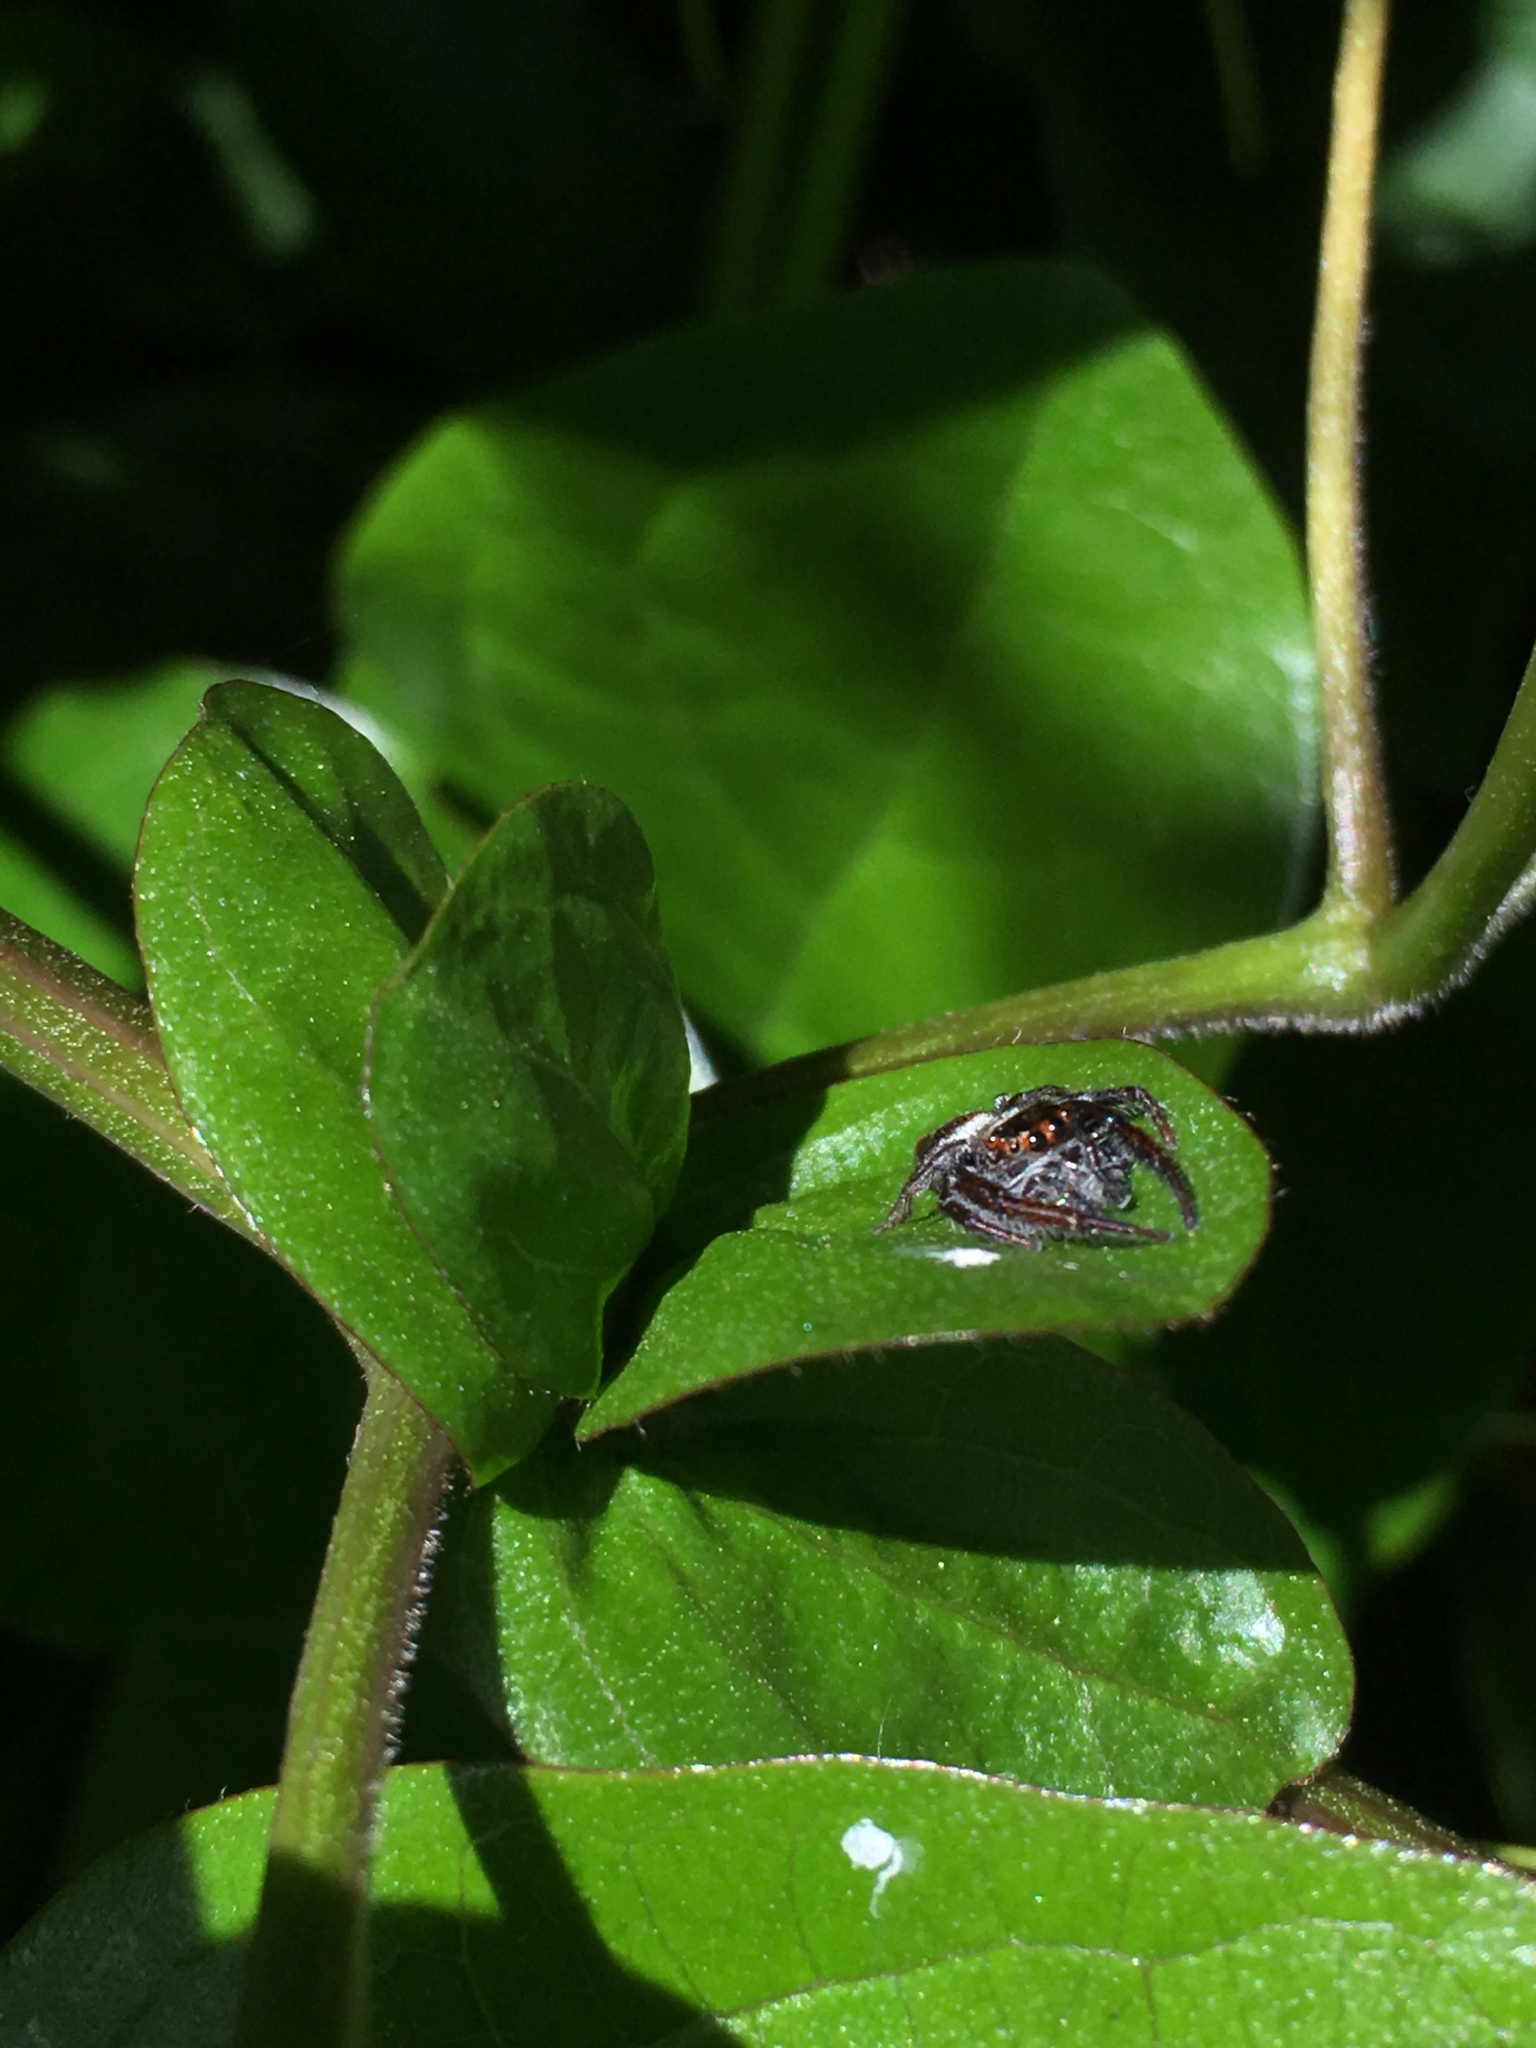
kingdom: Animalia
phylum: Arthropoda
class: Arachnida
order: Araneae
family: Salticidae
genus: Opisthoncus
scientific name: Opisthoncus polyphemus
